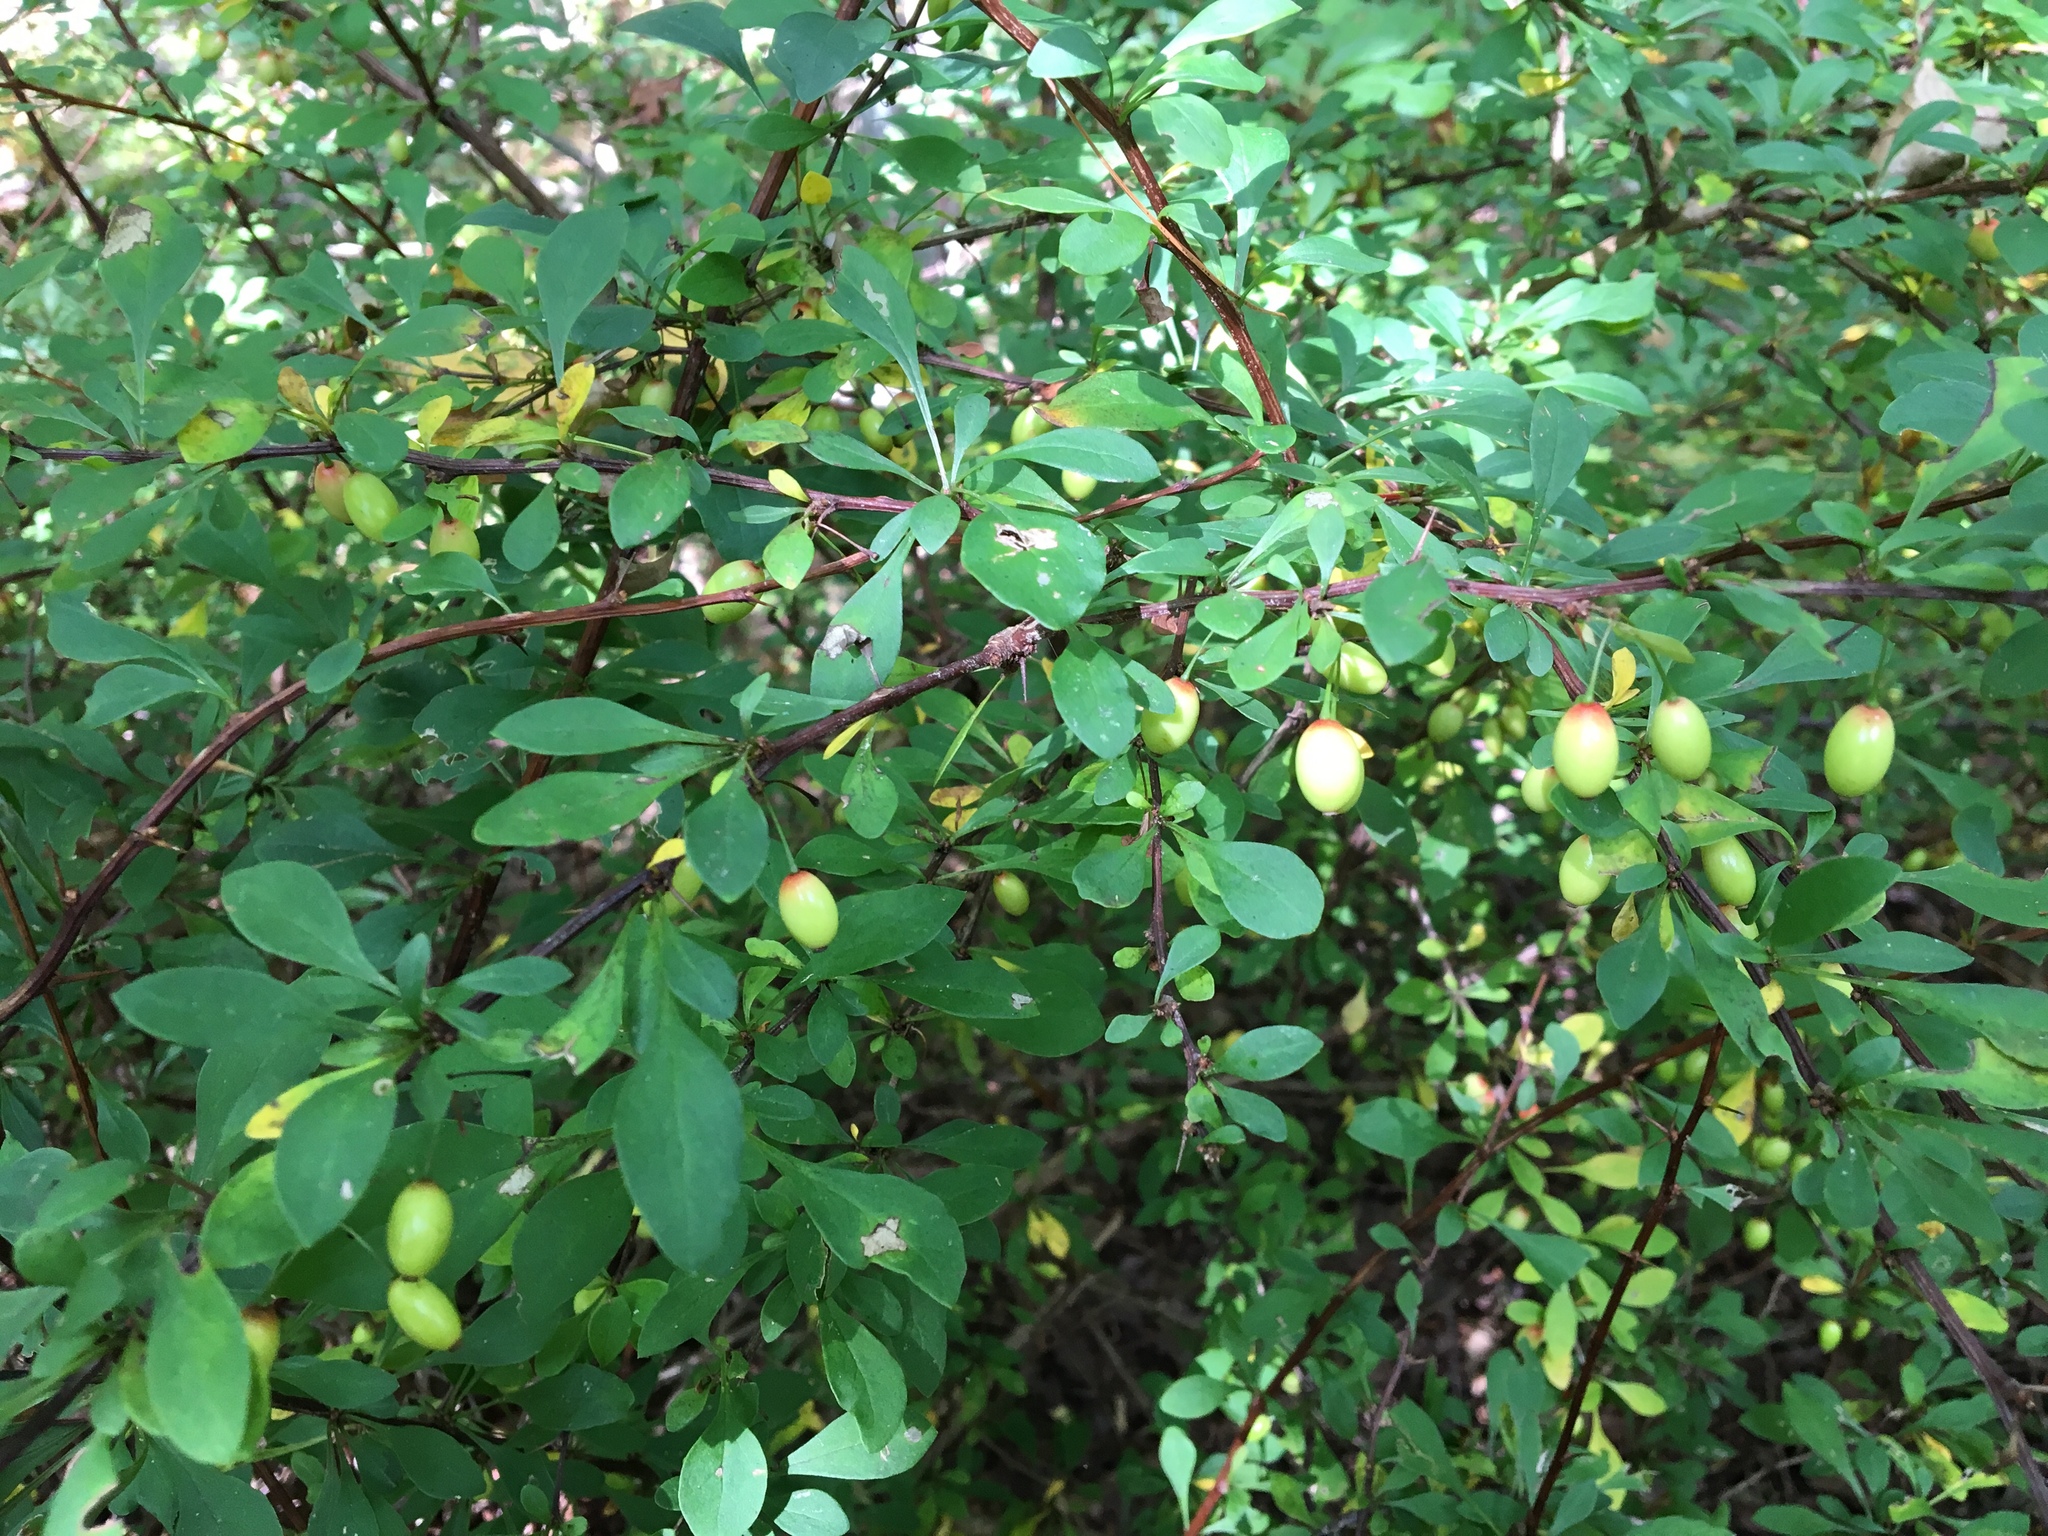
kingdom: Plantae
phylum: Tracheophyta
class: Magnoliopsida
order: Ranunculales
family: Berberidaceae
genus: Berberis
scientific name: Berberis thunbergii
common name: Japanese barberry
